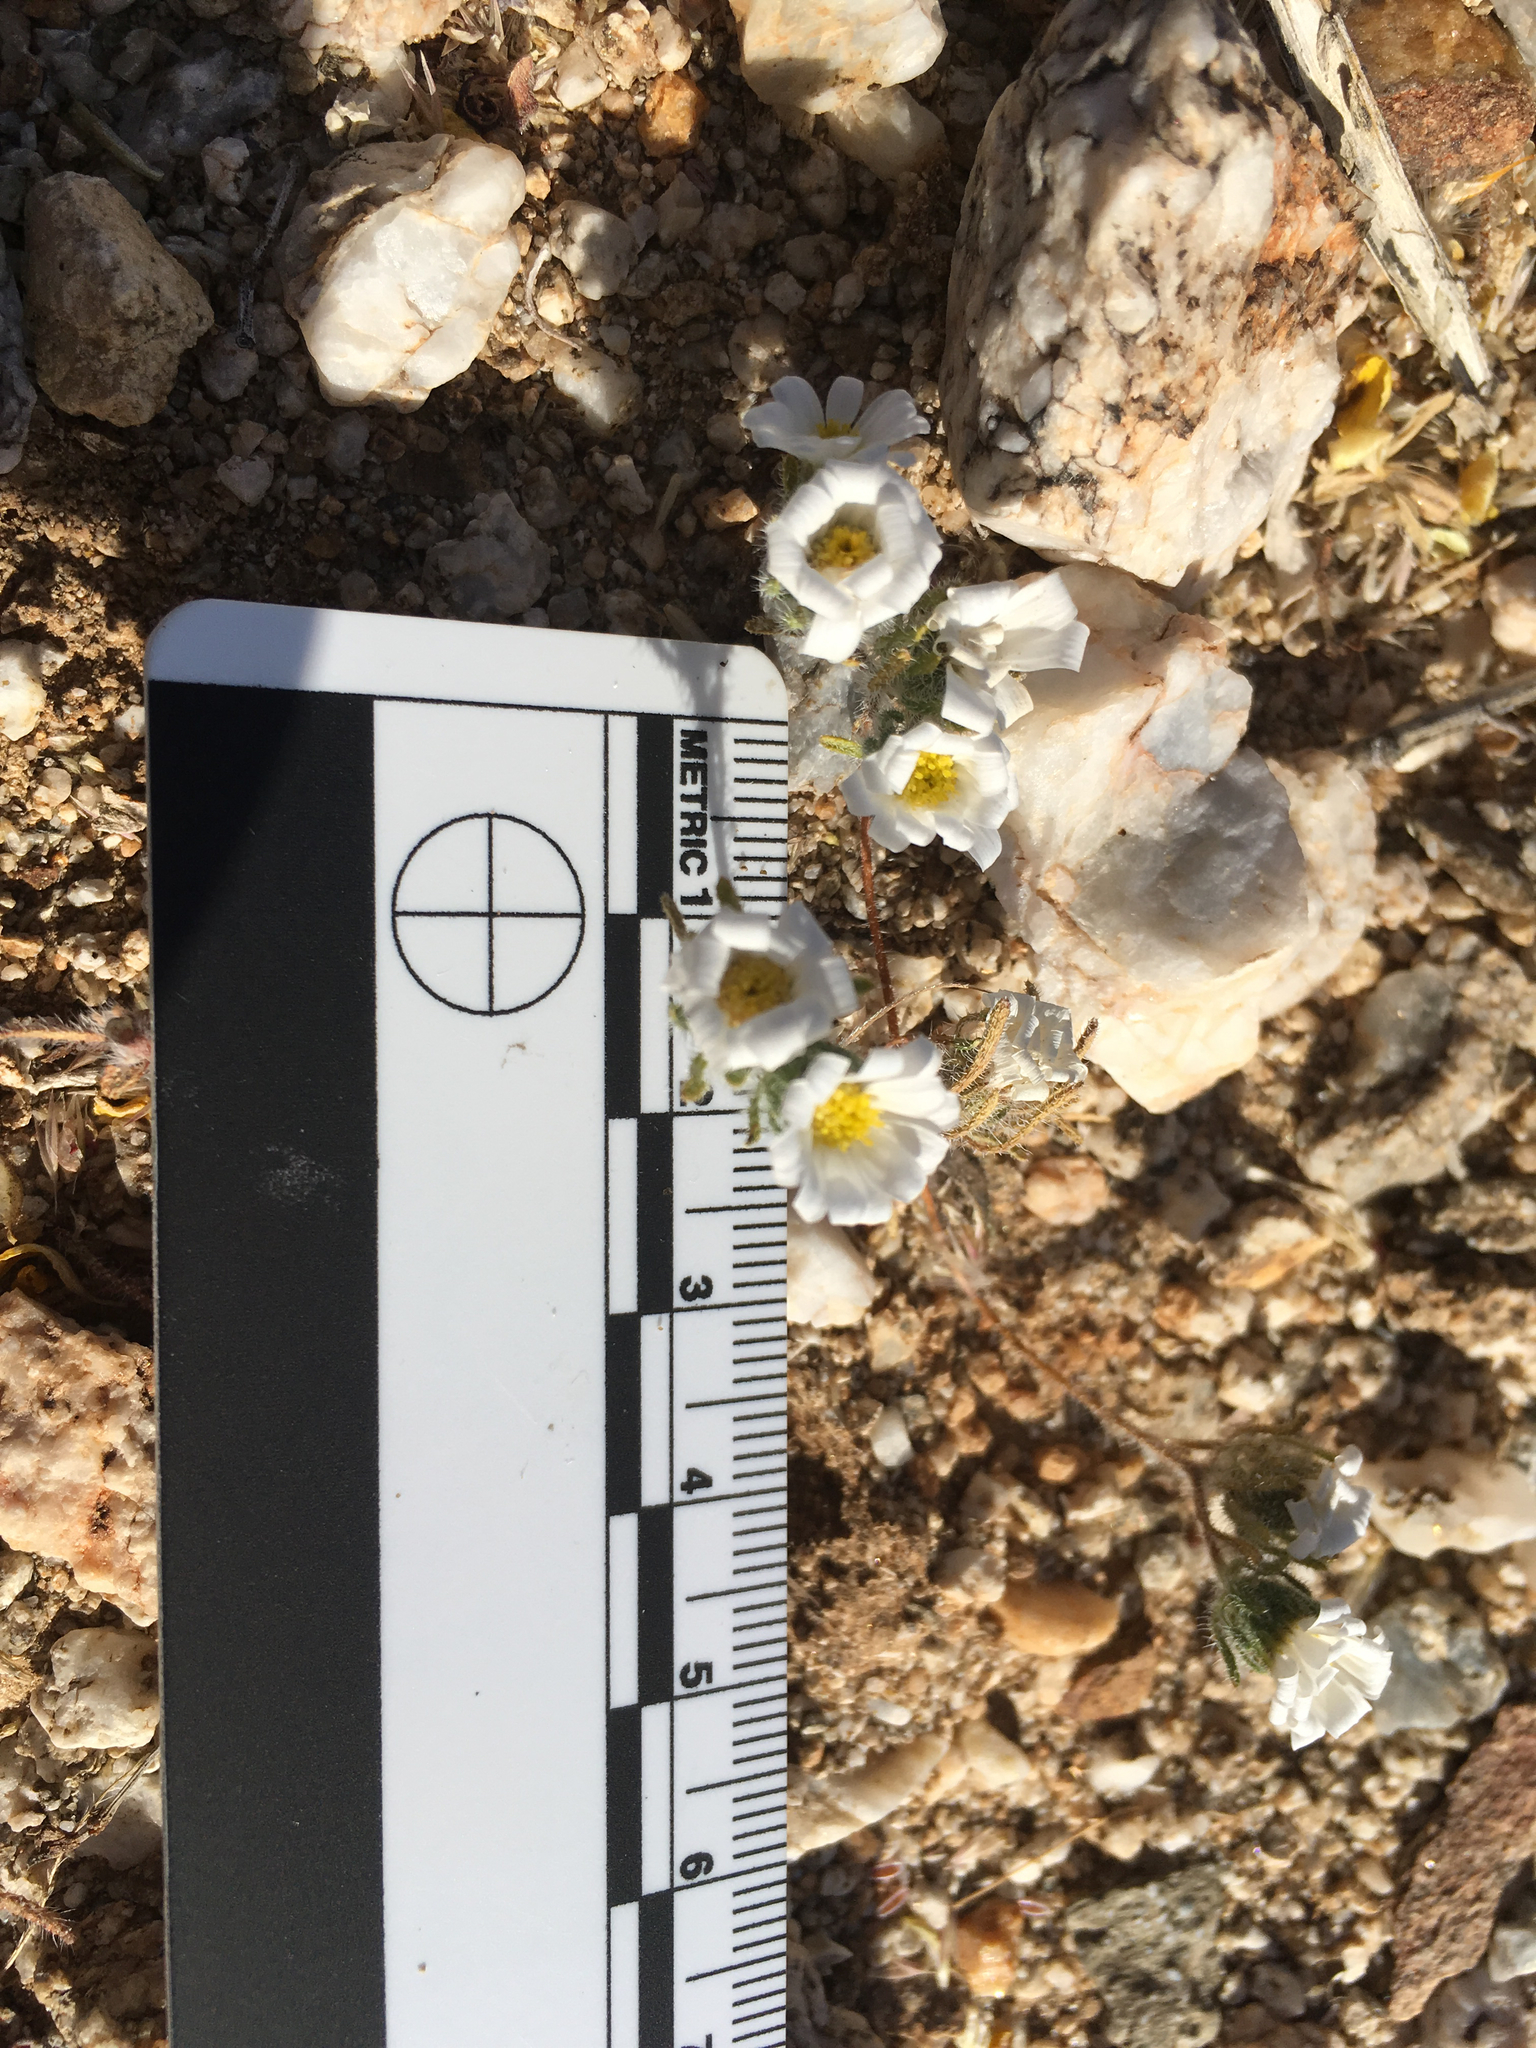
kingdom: Plantae
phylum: Tracheophyta
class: Magnoliopsida
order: Asterales
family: Asteraceae
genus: Monoptilon
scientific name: Monoptilon bellioides
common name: Bristly desertstar
